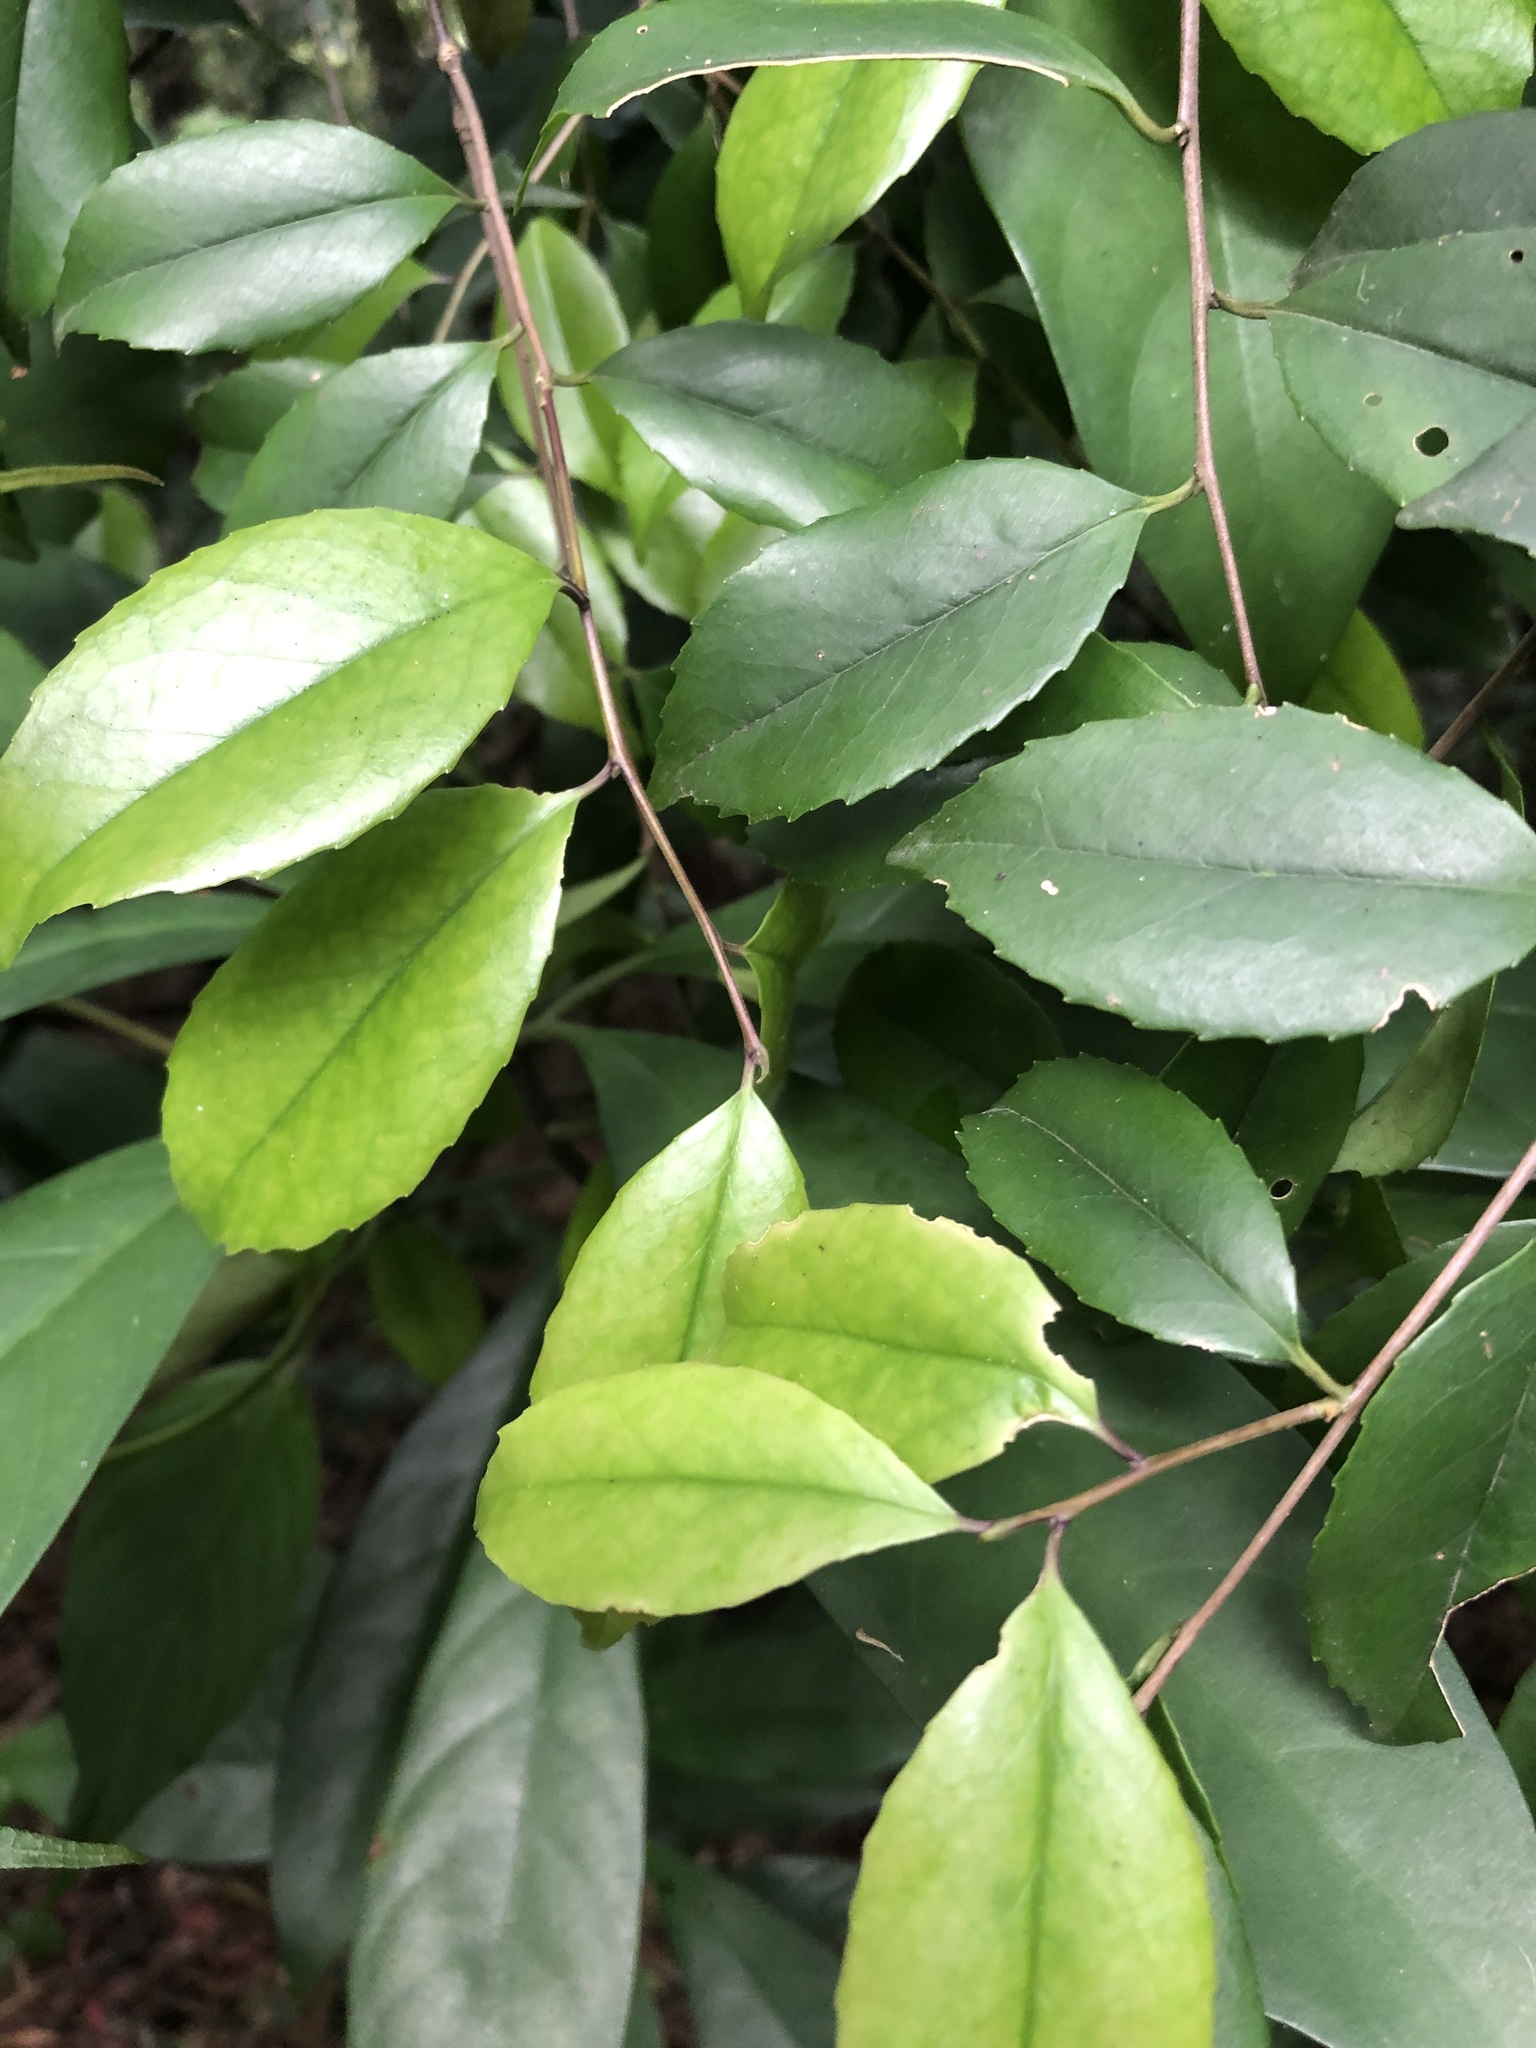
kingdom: Plantae
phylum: Tracheophyta
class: Magnoliopsida
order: Aquifoliales
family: Aquifoliaceae
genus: Ilex
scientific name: Ilex uraiensis
